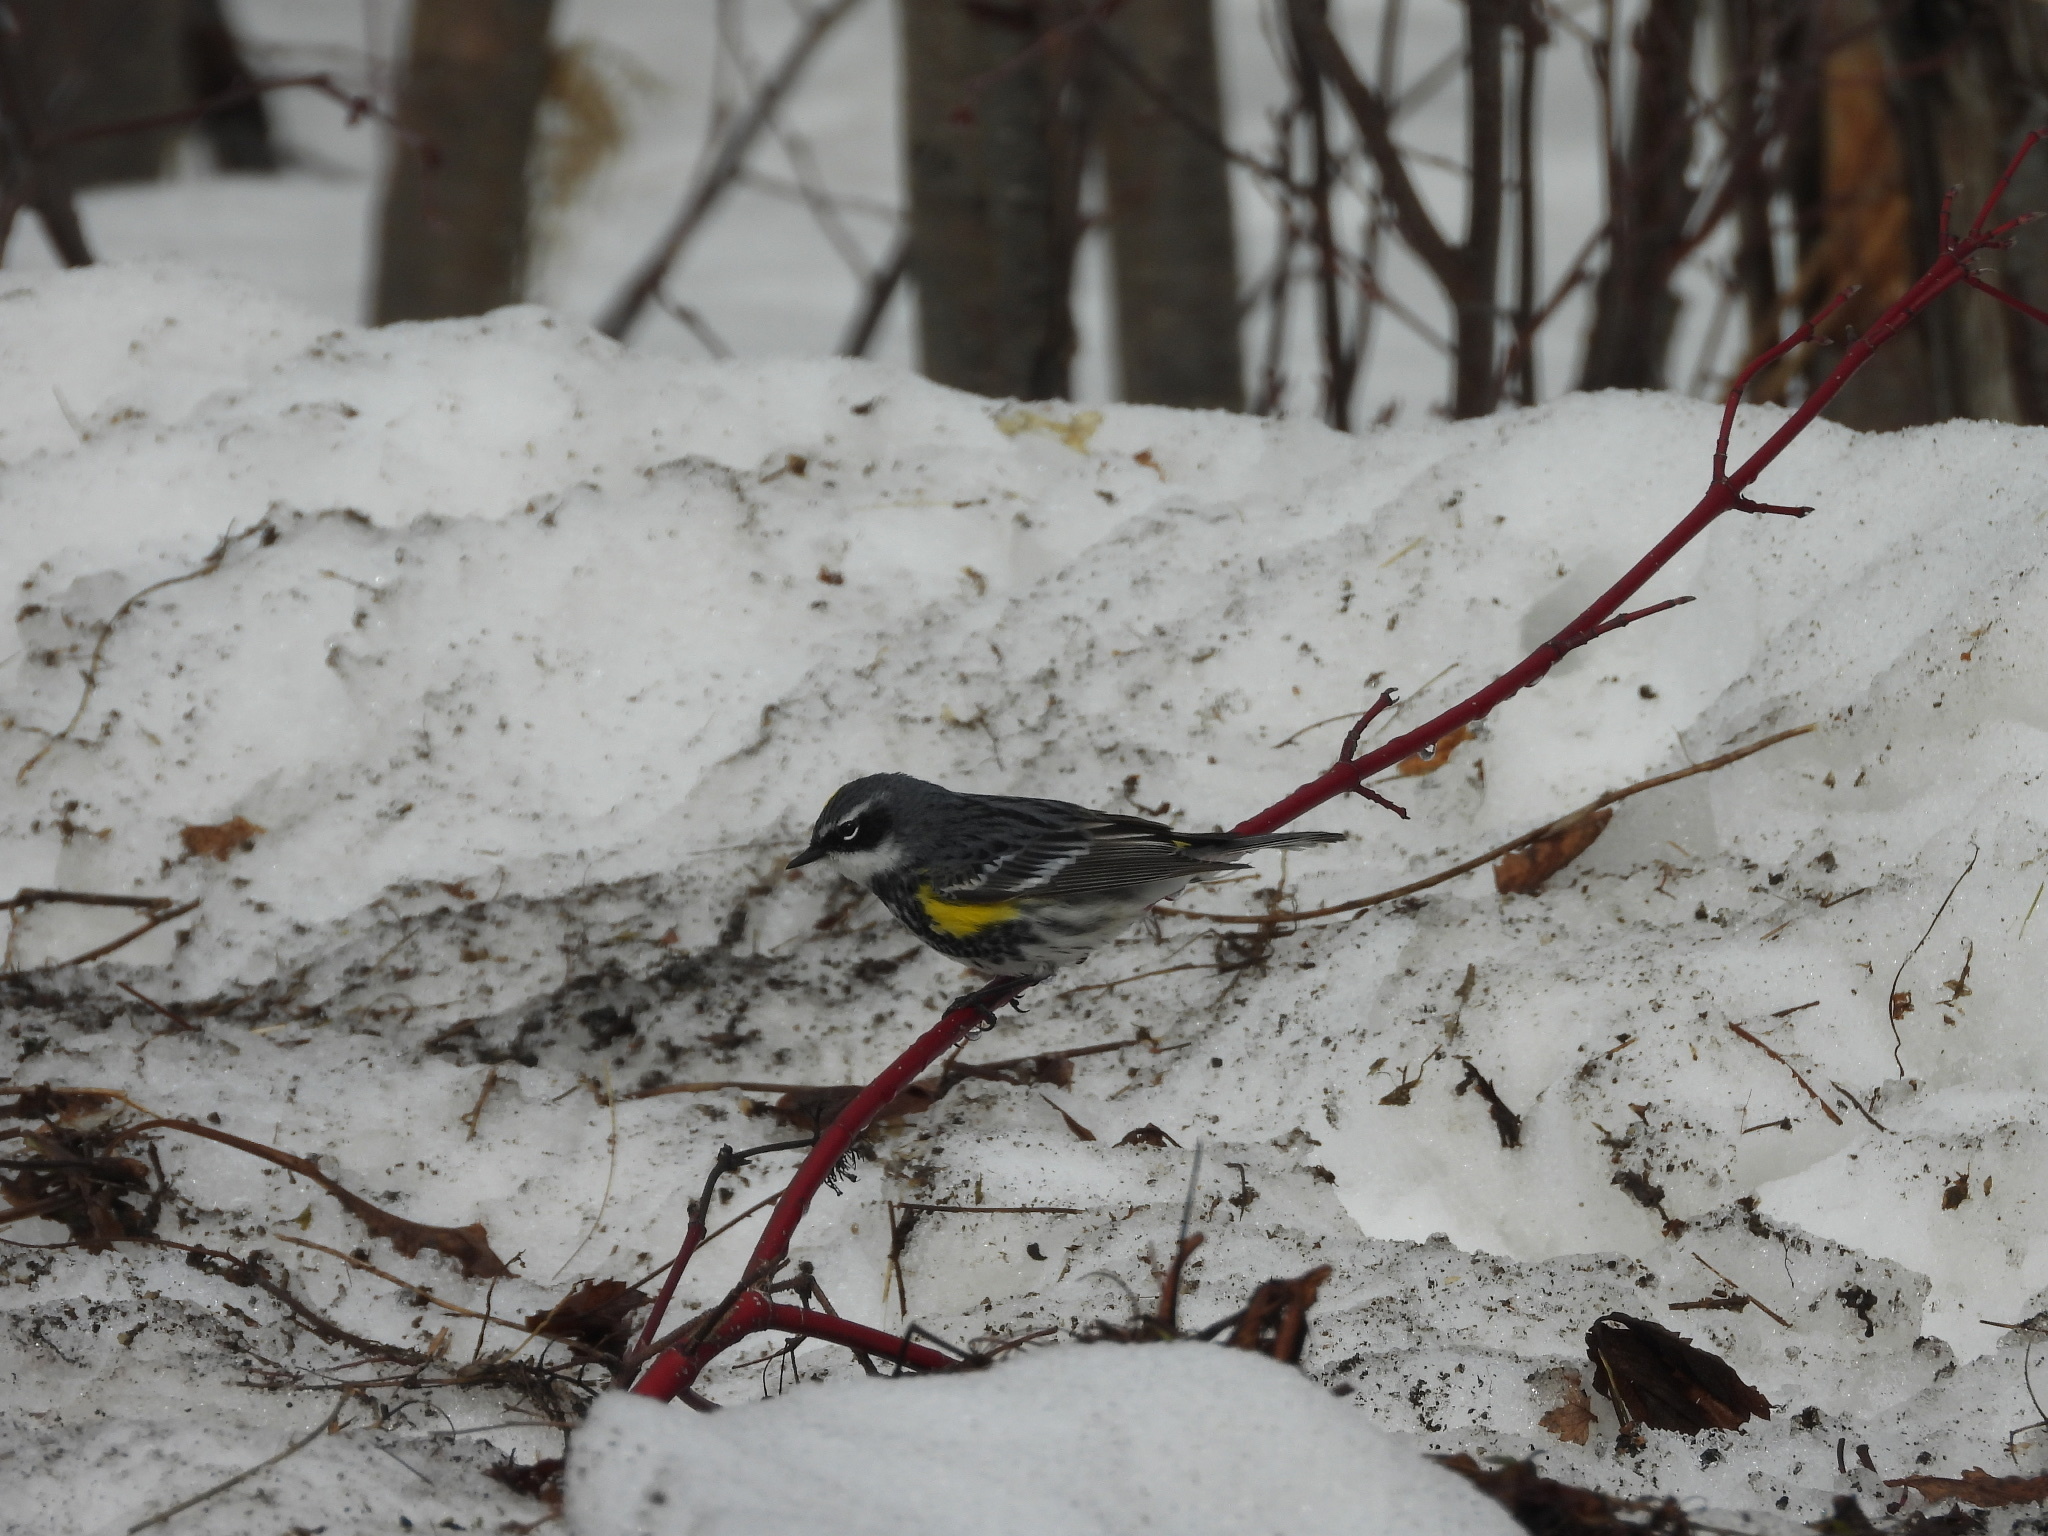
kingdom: Animalia
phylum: Chordata
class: Aves
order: Passeriformes
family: Parulidae
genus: Setophaga
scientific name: Setophaga coronata
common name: Myrtle warbler
